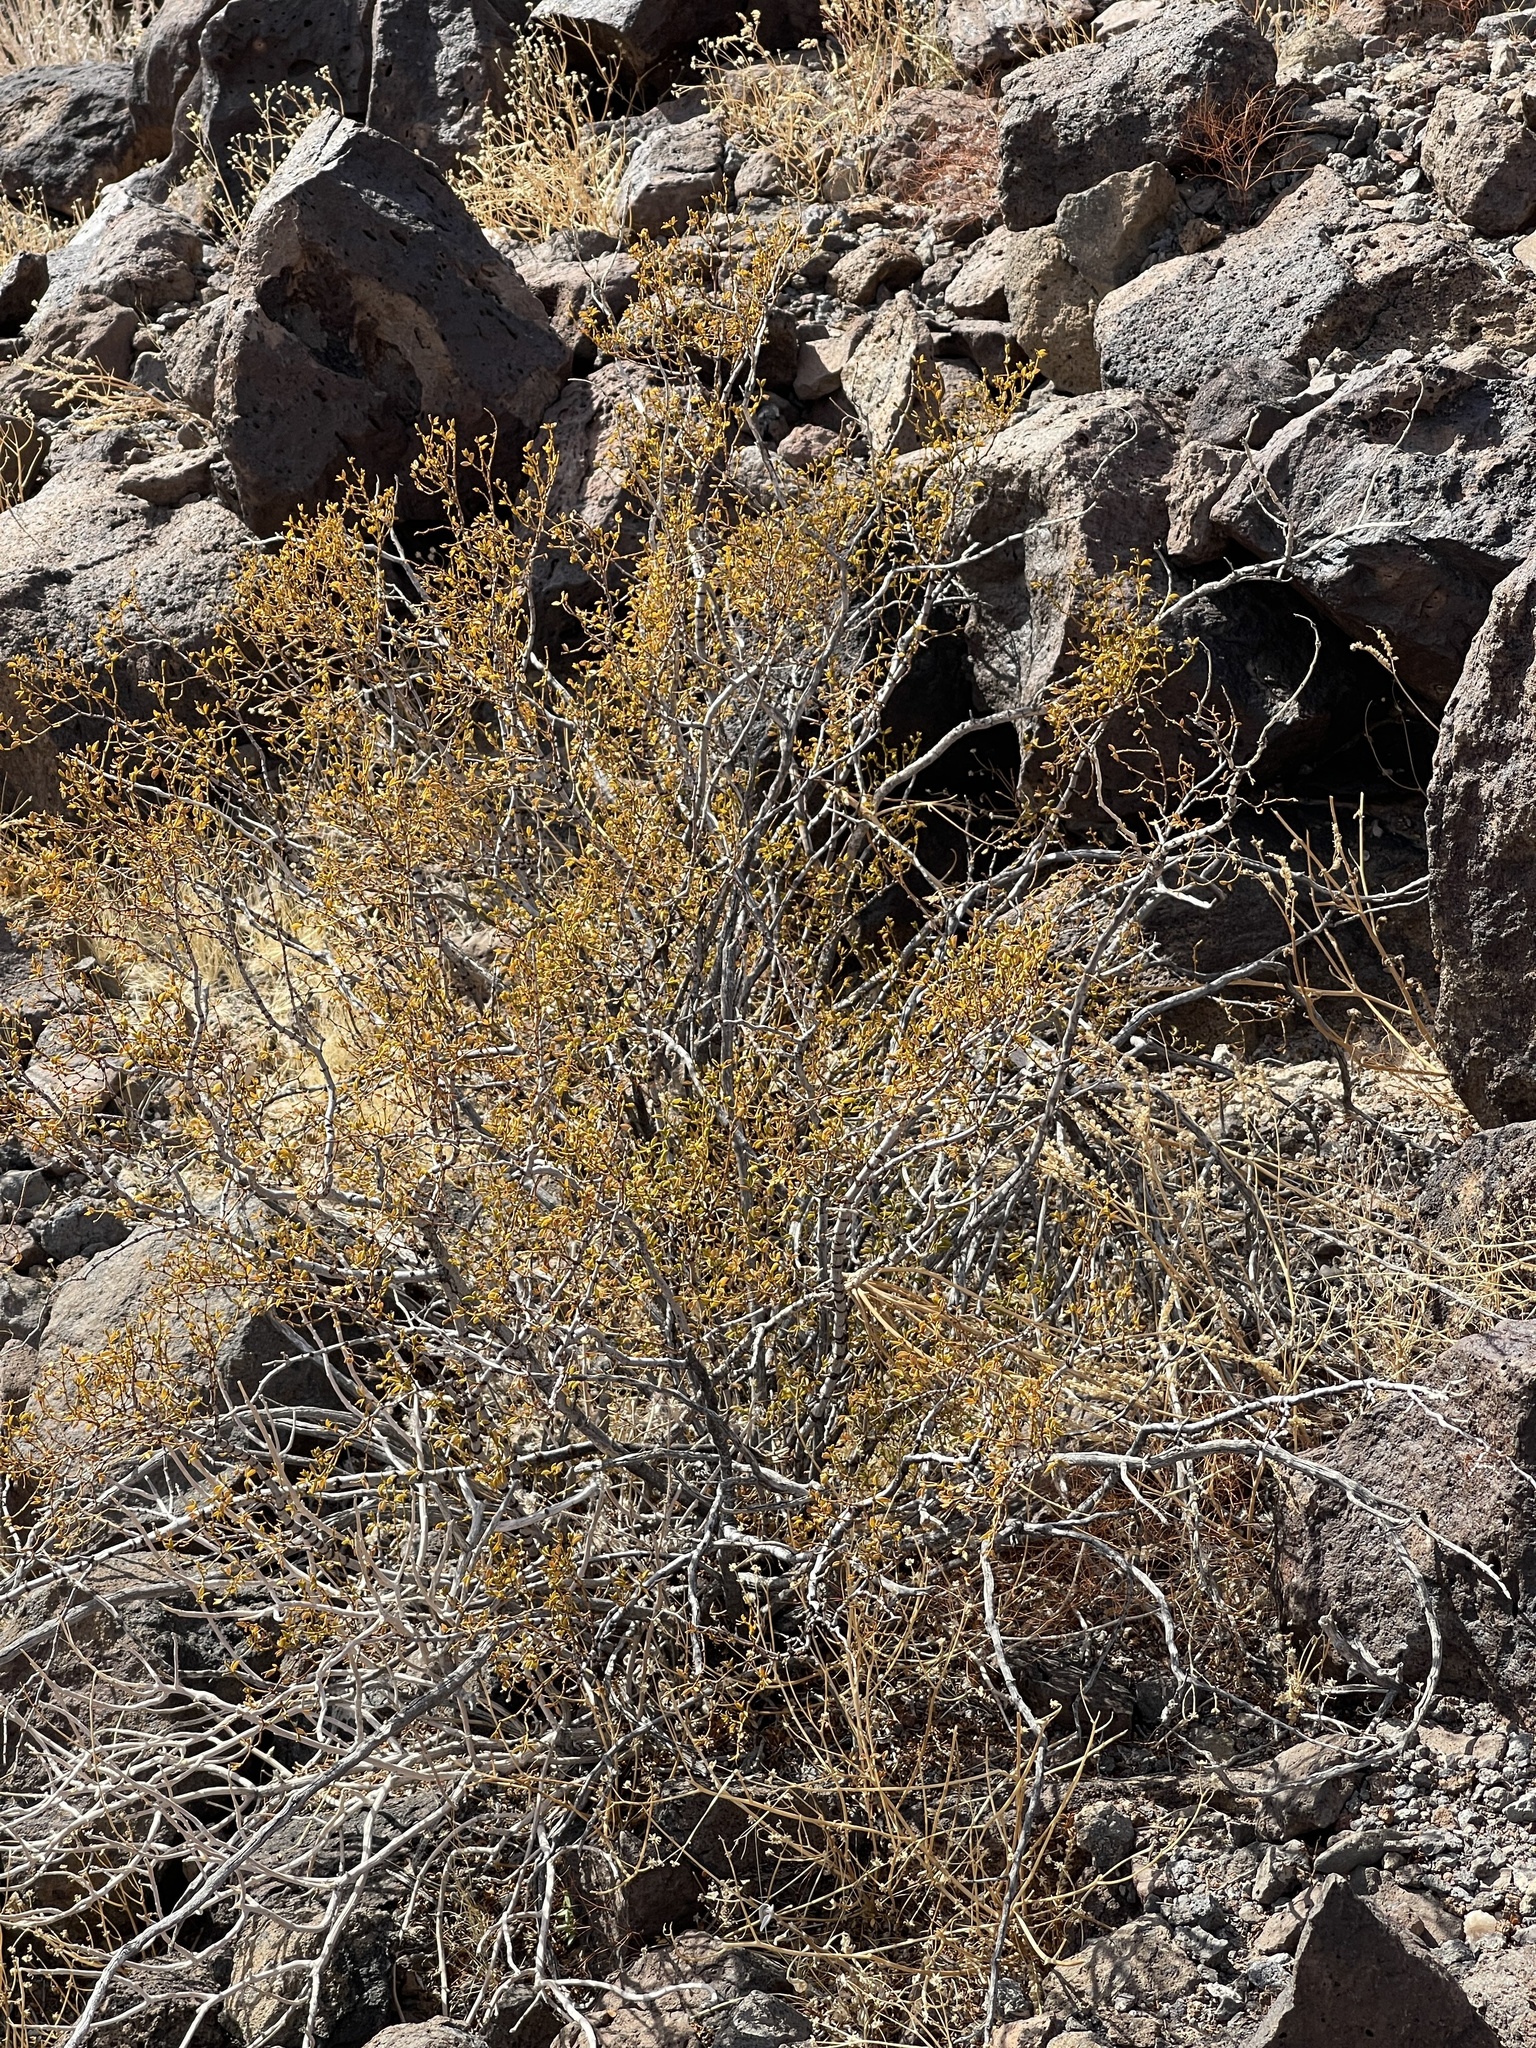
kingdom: Plantae
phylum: Tracheophyta
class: Magnoliopsida
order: Zygophyllales
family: Zygophyllaceae
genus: Larrea
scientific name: Larrea tridentata
